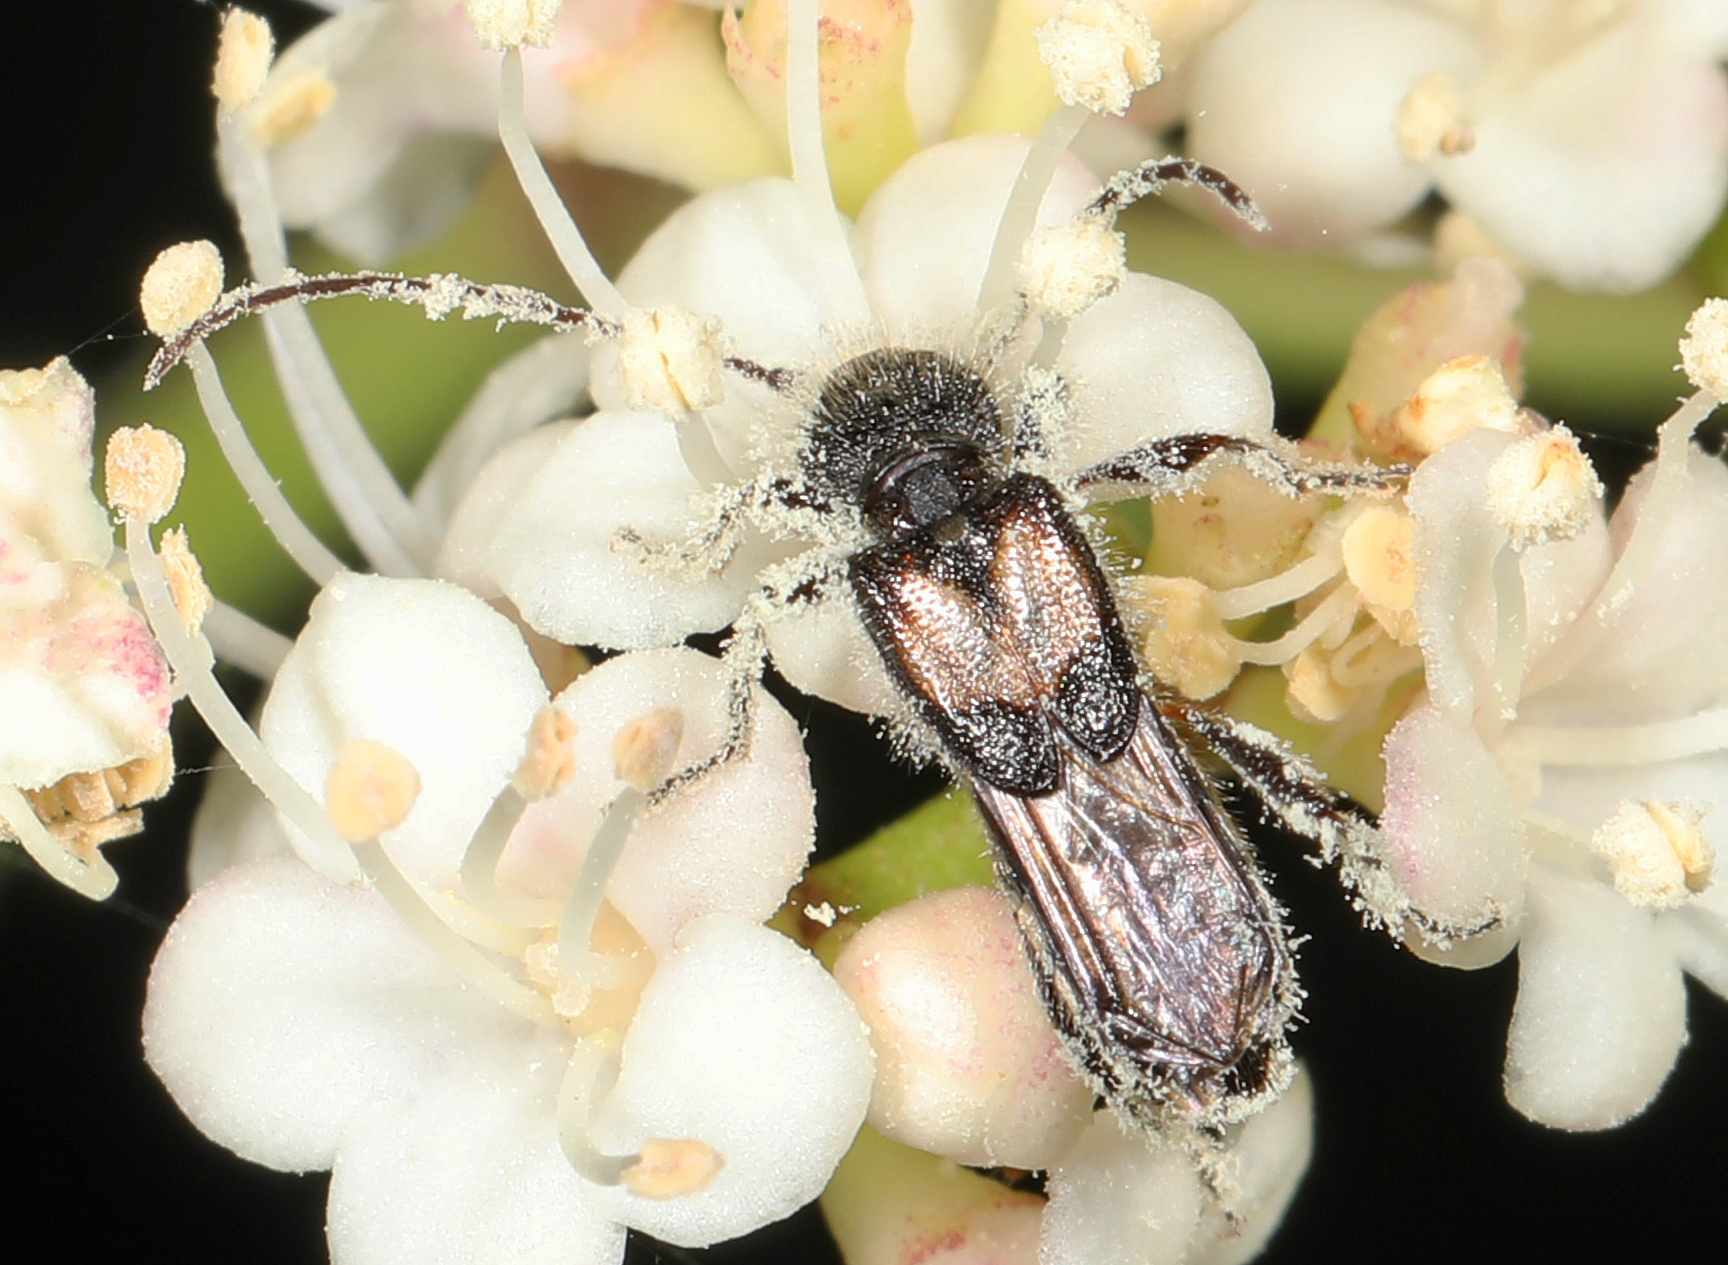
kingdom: Animalia
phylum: Arthropoda
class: Insecta
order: Coleoptera
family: Cerambycidae
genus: Molorchus
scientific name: Molorchus bimaculatus
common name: Bimaculate longhorn beetle
